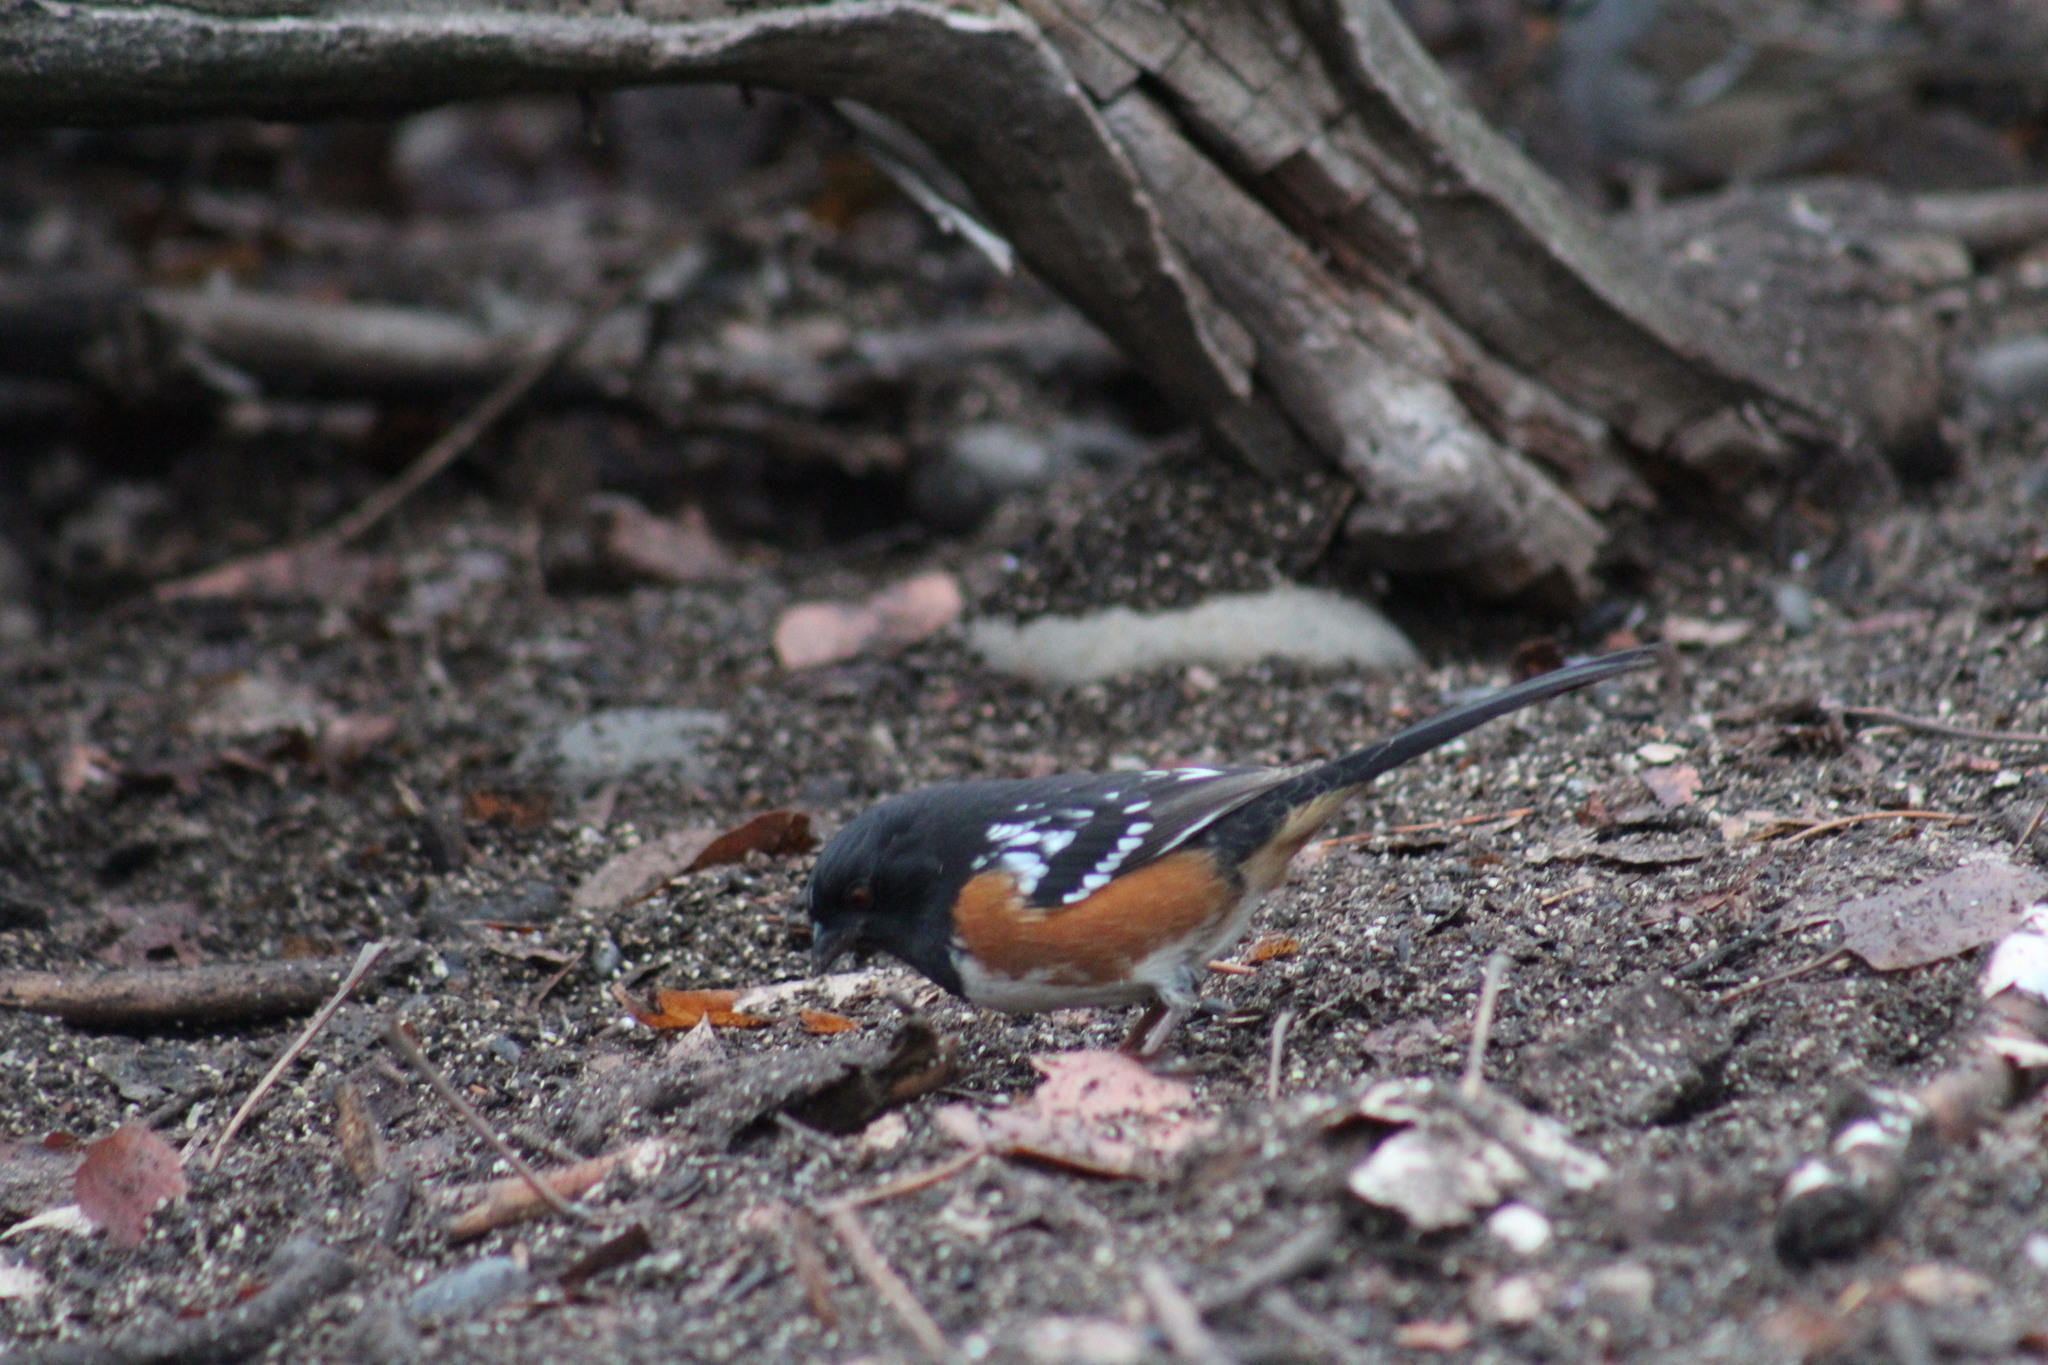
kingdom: Animalia
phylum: Chordata
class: Aves
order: Passeriformes
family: Passerellidae
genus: Pipilo
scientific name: Pipilo maculatus
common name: Spotted towhee
